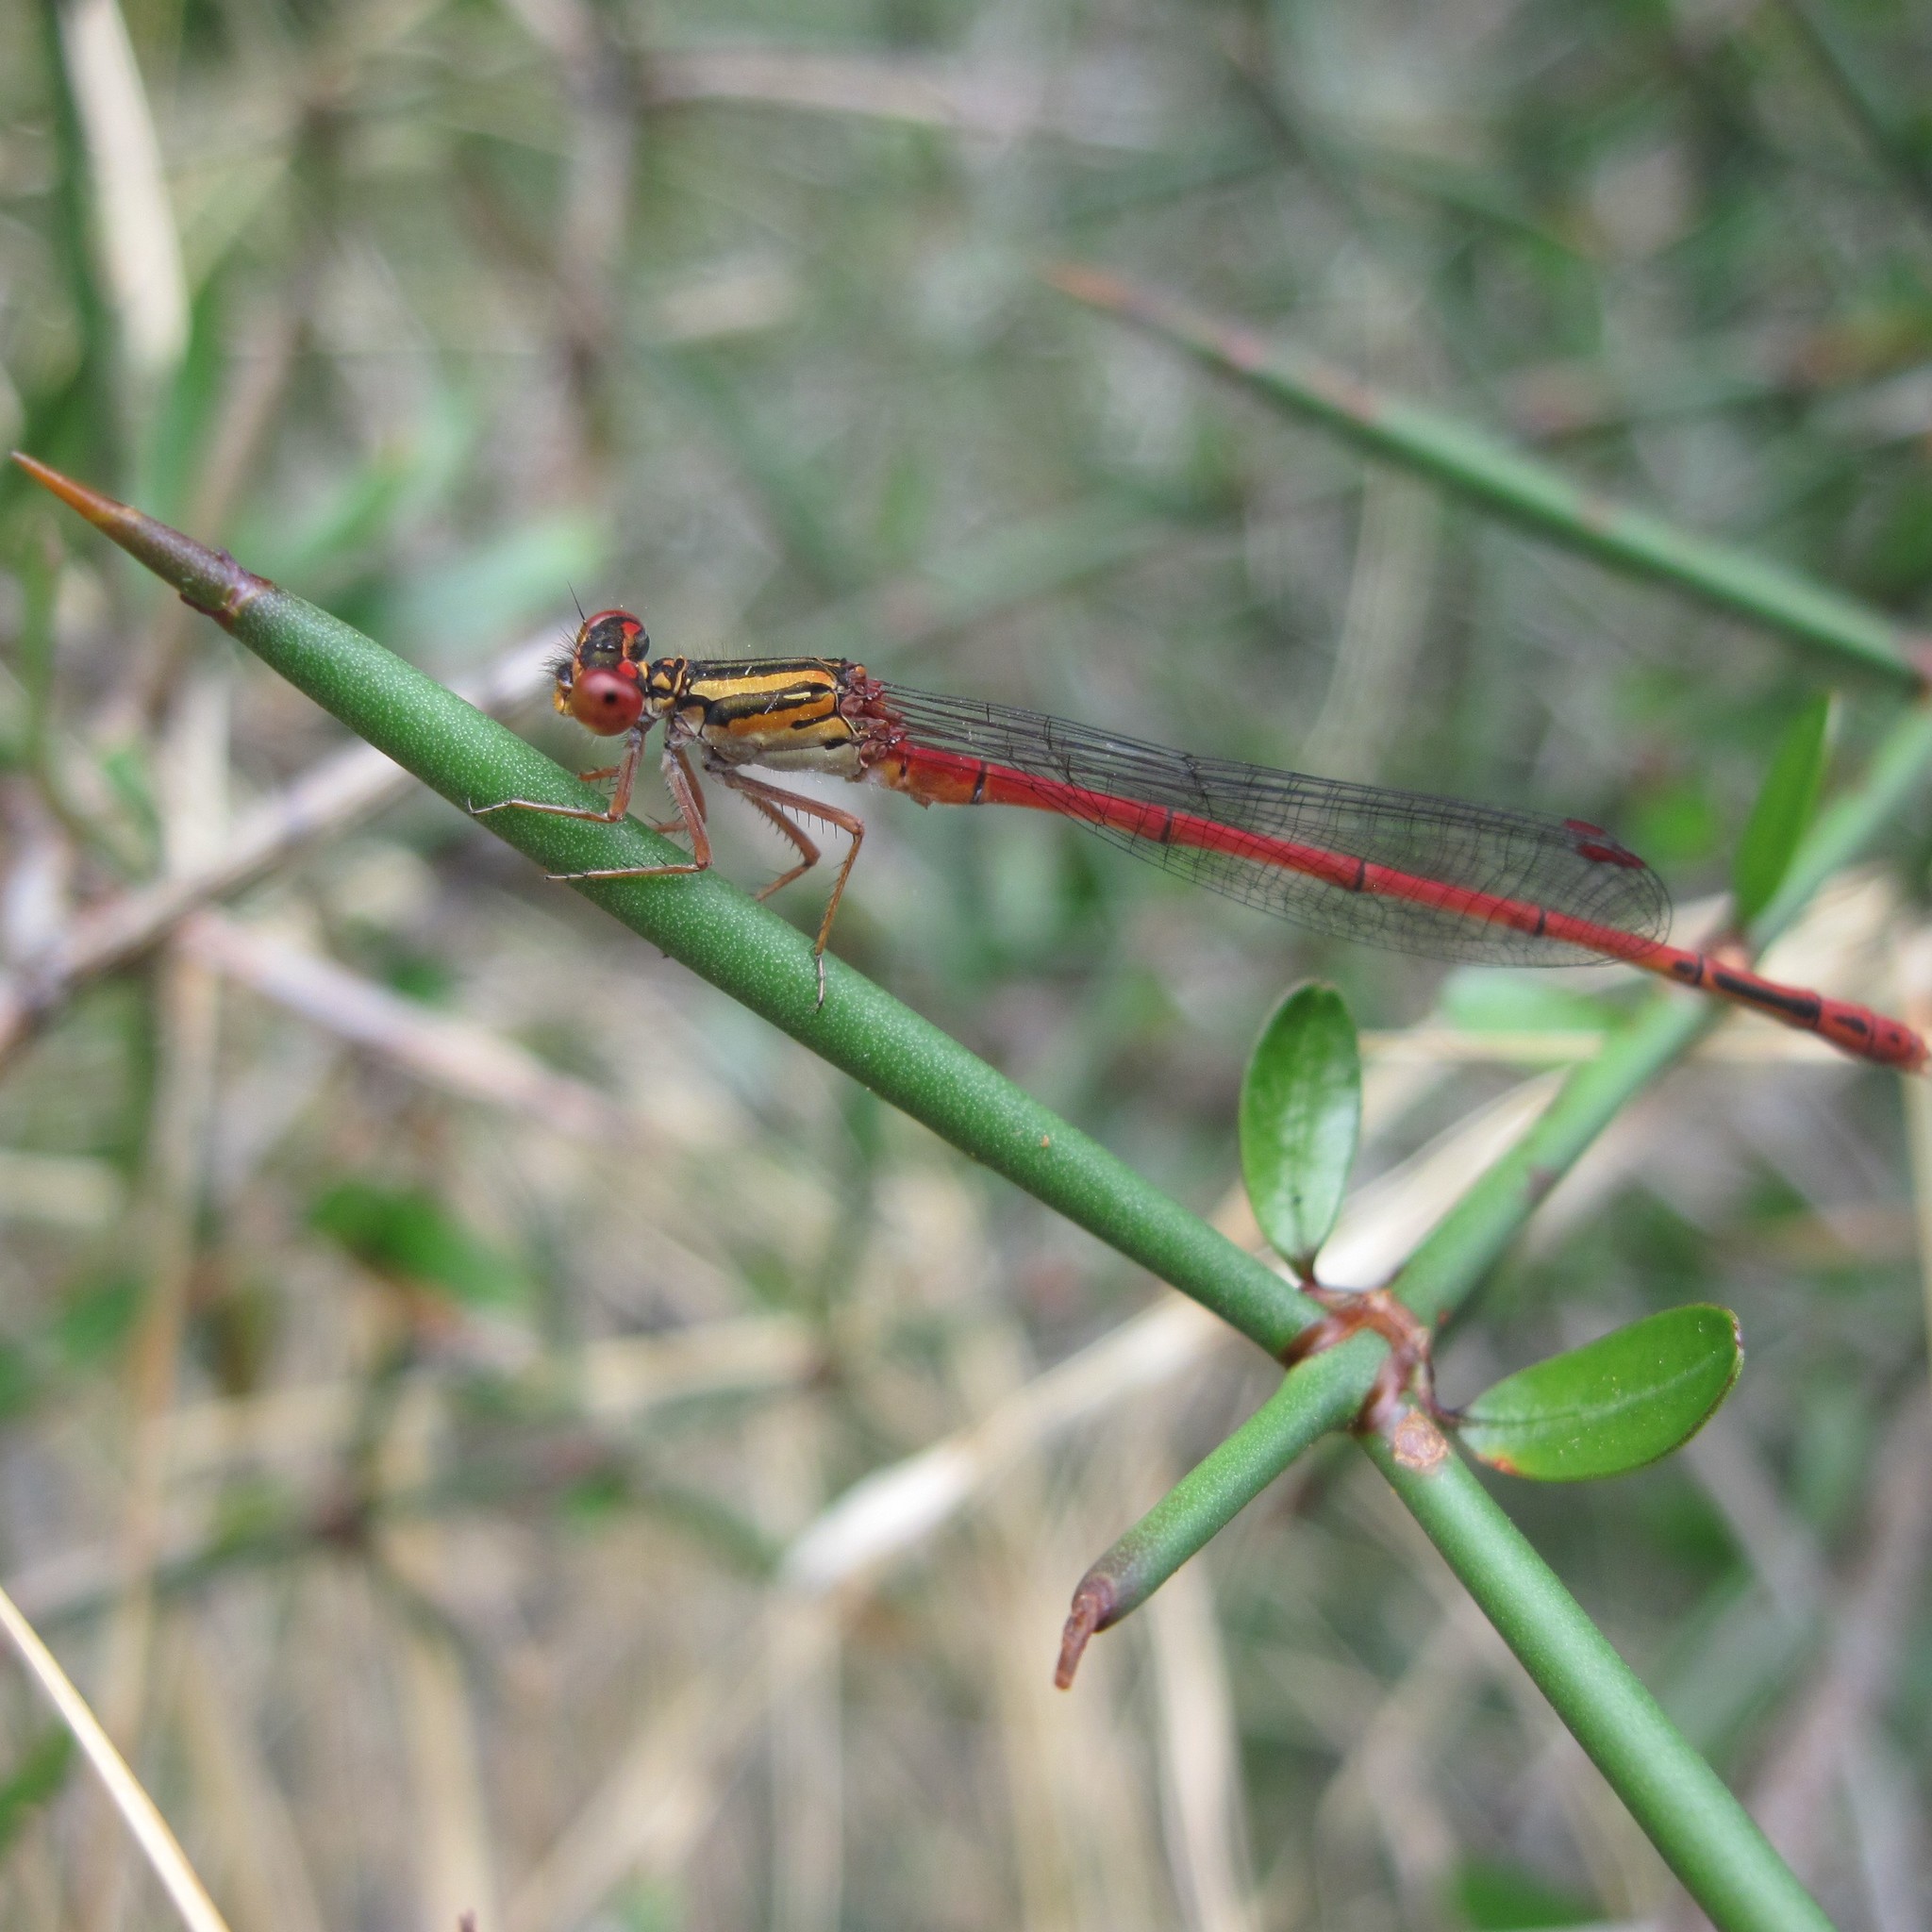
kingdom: Animalia
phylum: Arthropoda
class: Insecta
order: Odonata
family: Coenagrionidae
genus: Xanthocnemis
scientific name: Xanthocnemis zealandica
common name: Common redcoat damselfly
